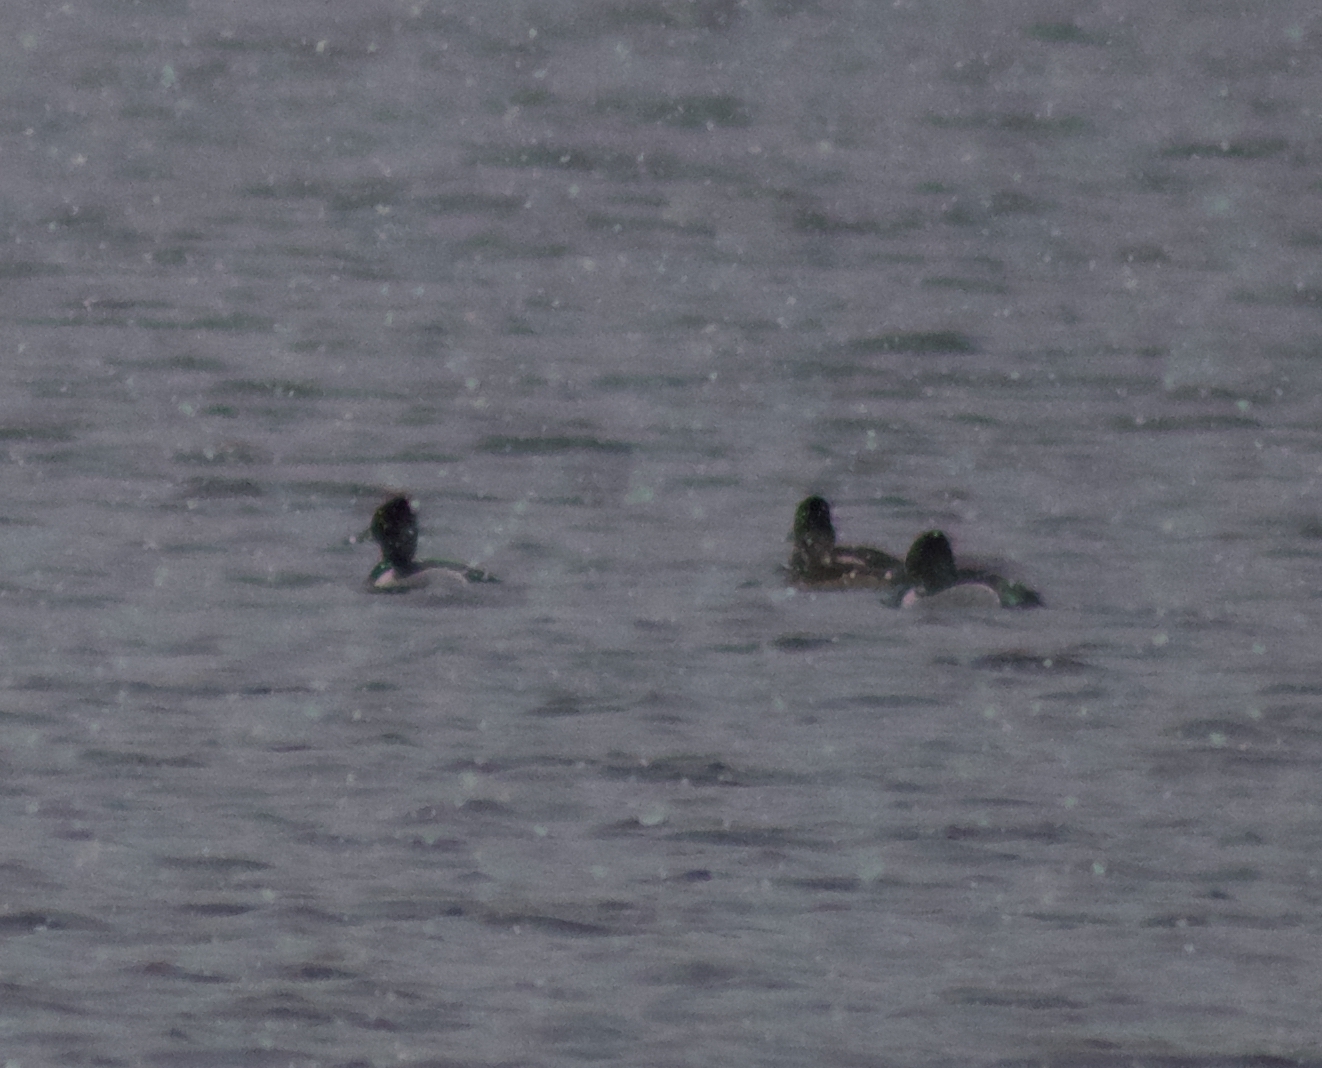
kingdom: Animalia
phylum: Chordata
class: Aves
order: Anseriformes
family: Anatidae
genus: Aythya
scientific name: Aythya collaris
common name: Ring-necked duck
